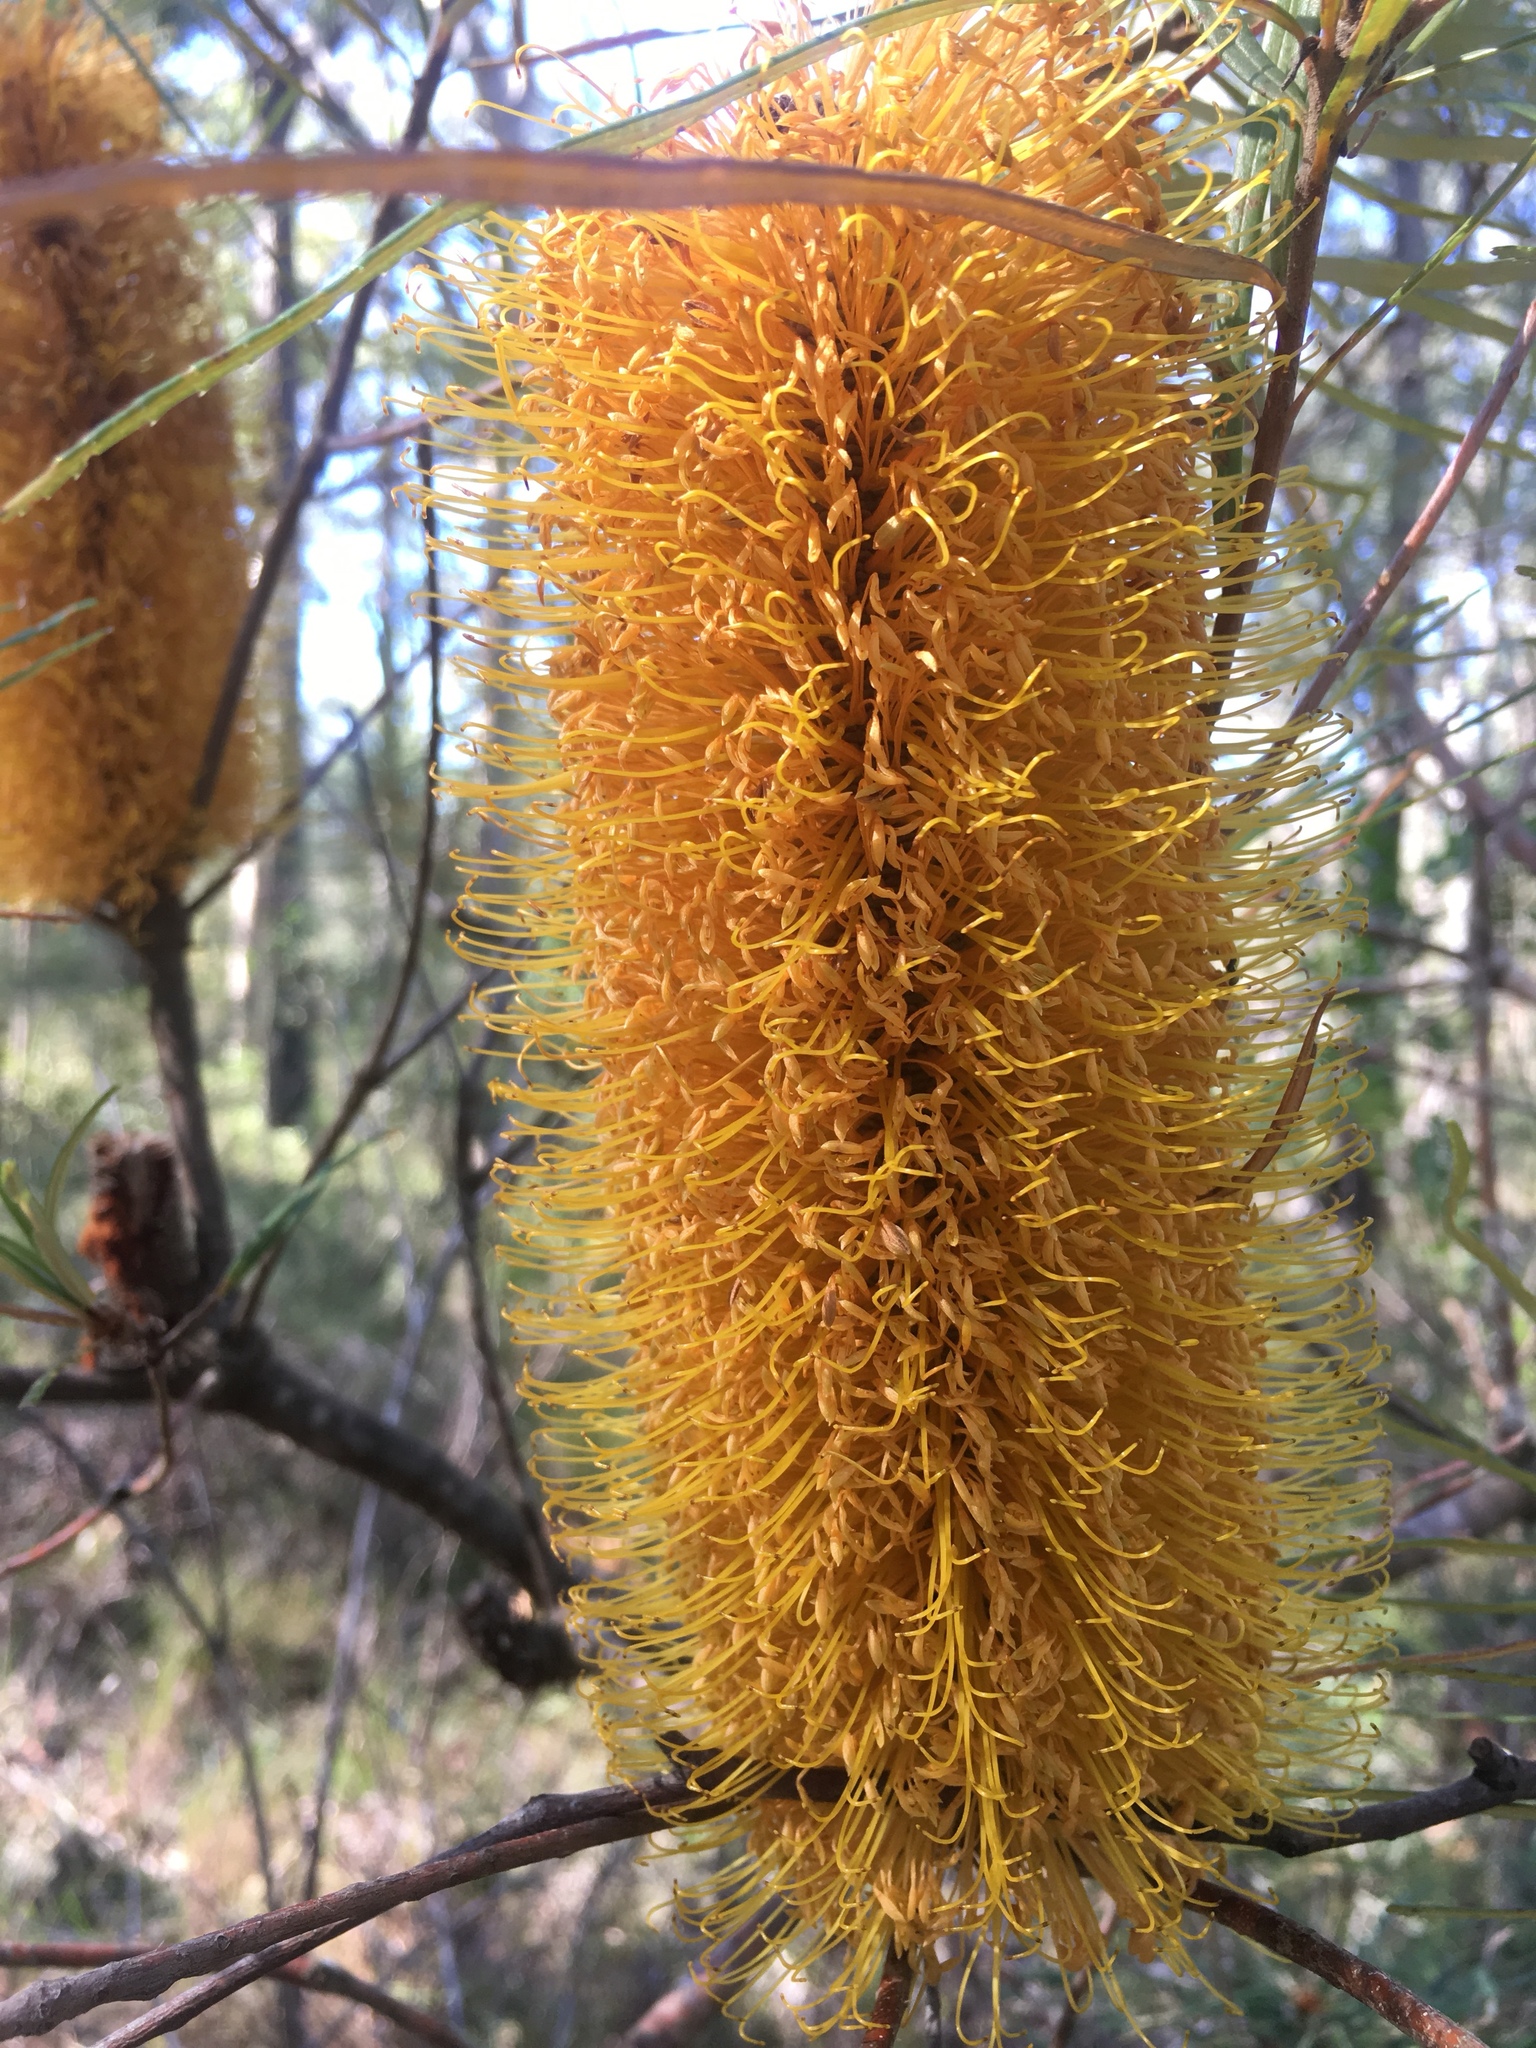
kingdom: Plantae
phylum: Tracheophyta
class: Magnoliopsida
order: Proteales
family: Proteaceae
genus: Banksia
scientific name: Banksia spinulosa
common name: Hairpin banksia
